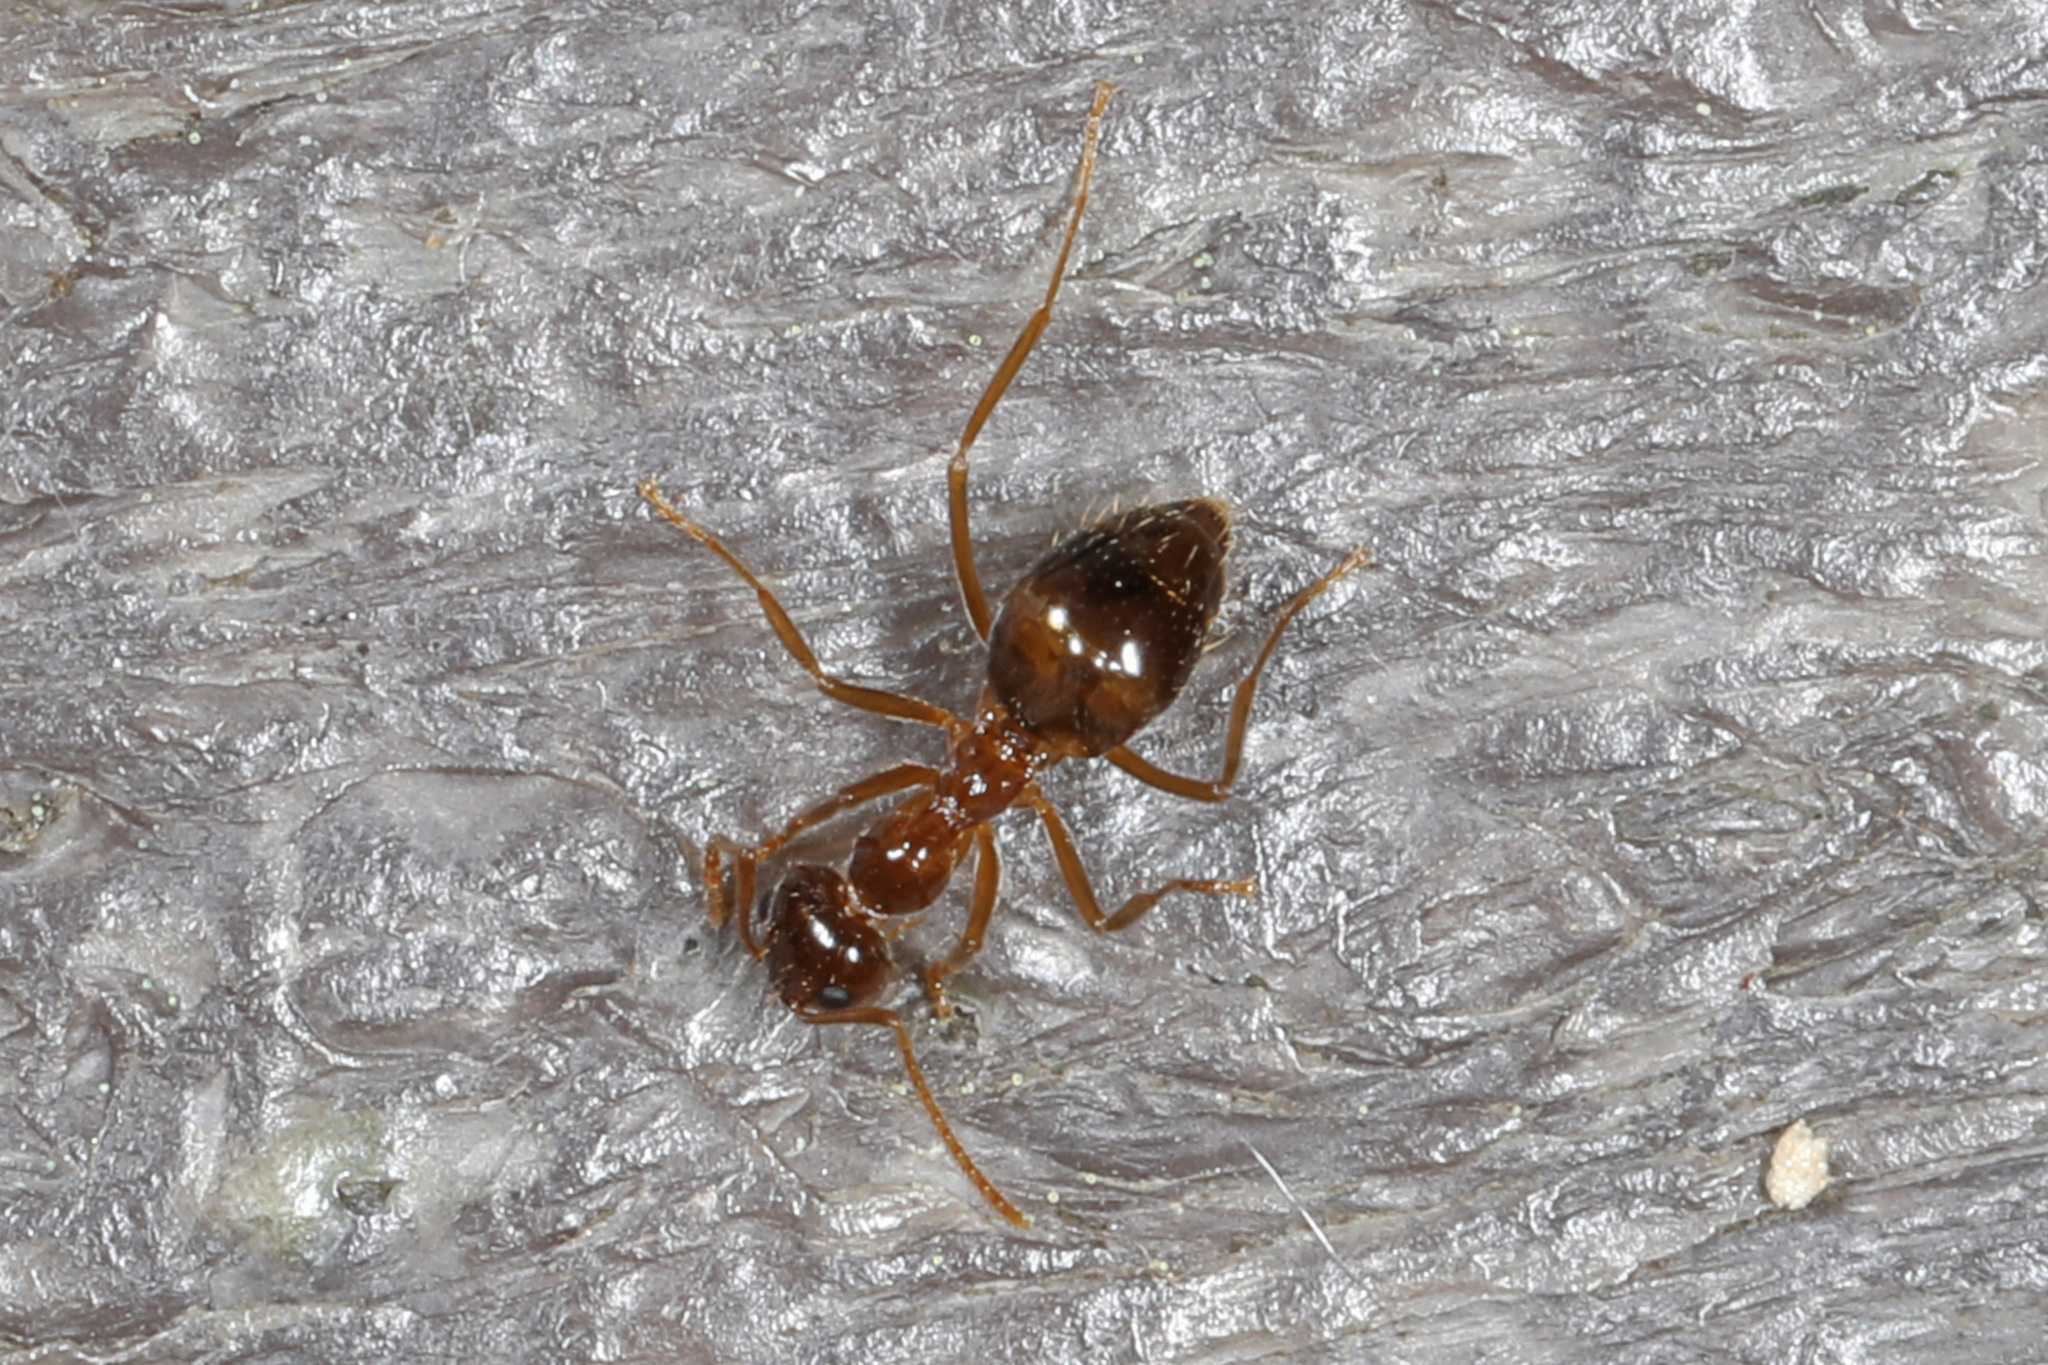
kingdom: Animalia
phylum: Arthropoda
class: Insecta
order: Hymenoptera
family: Formicidae
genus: Prenolepis
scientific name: Prenolepis imparis
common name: Small honey ant
